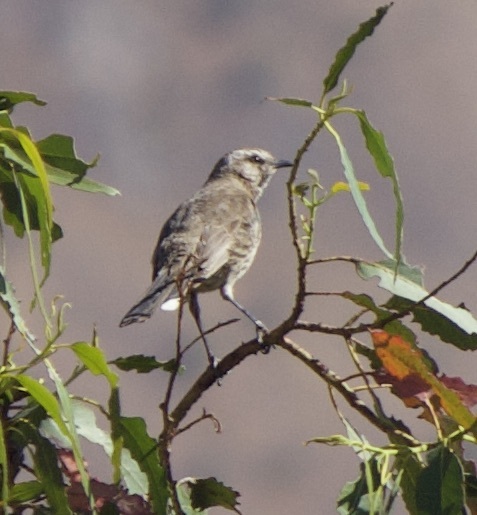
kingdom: Animalia
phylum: Chordata
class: Aves
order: Passeriformes
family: Mimidae
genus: Mimus
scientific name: Mimus thenca
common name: Chilean mockingbird
